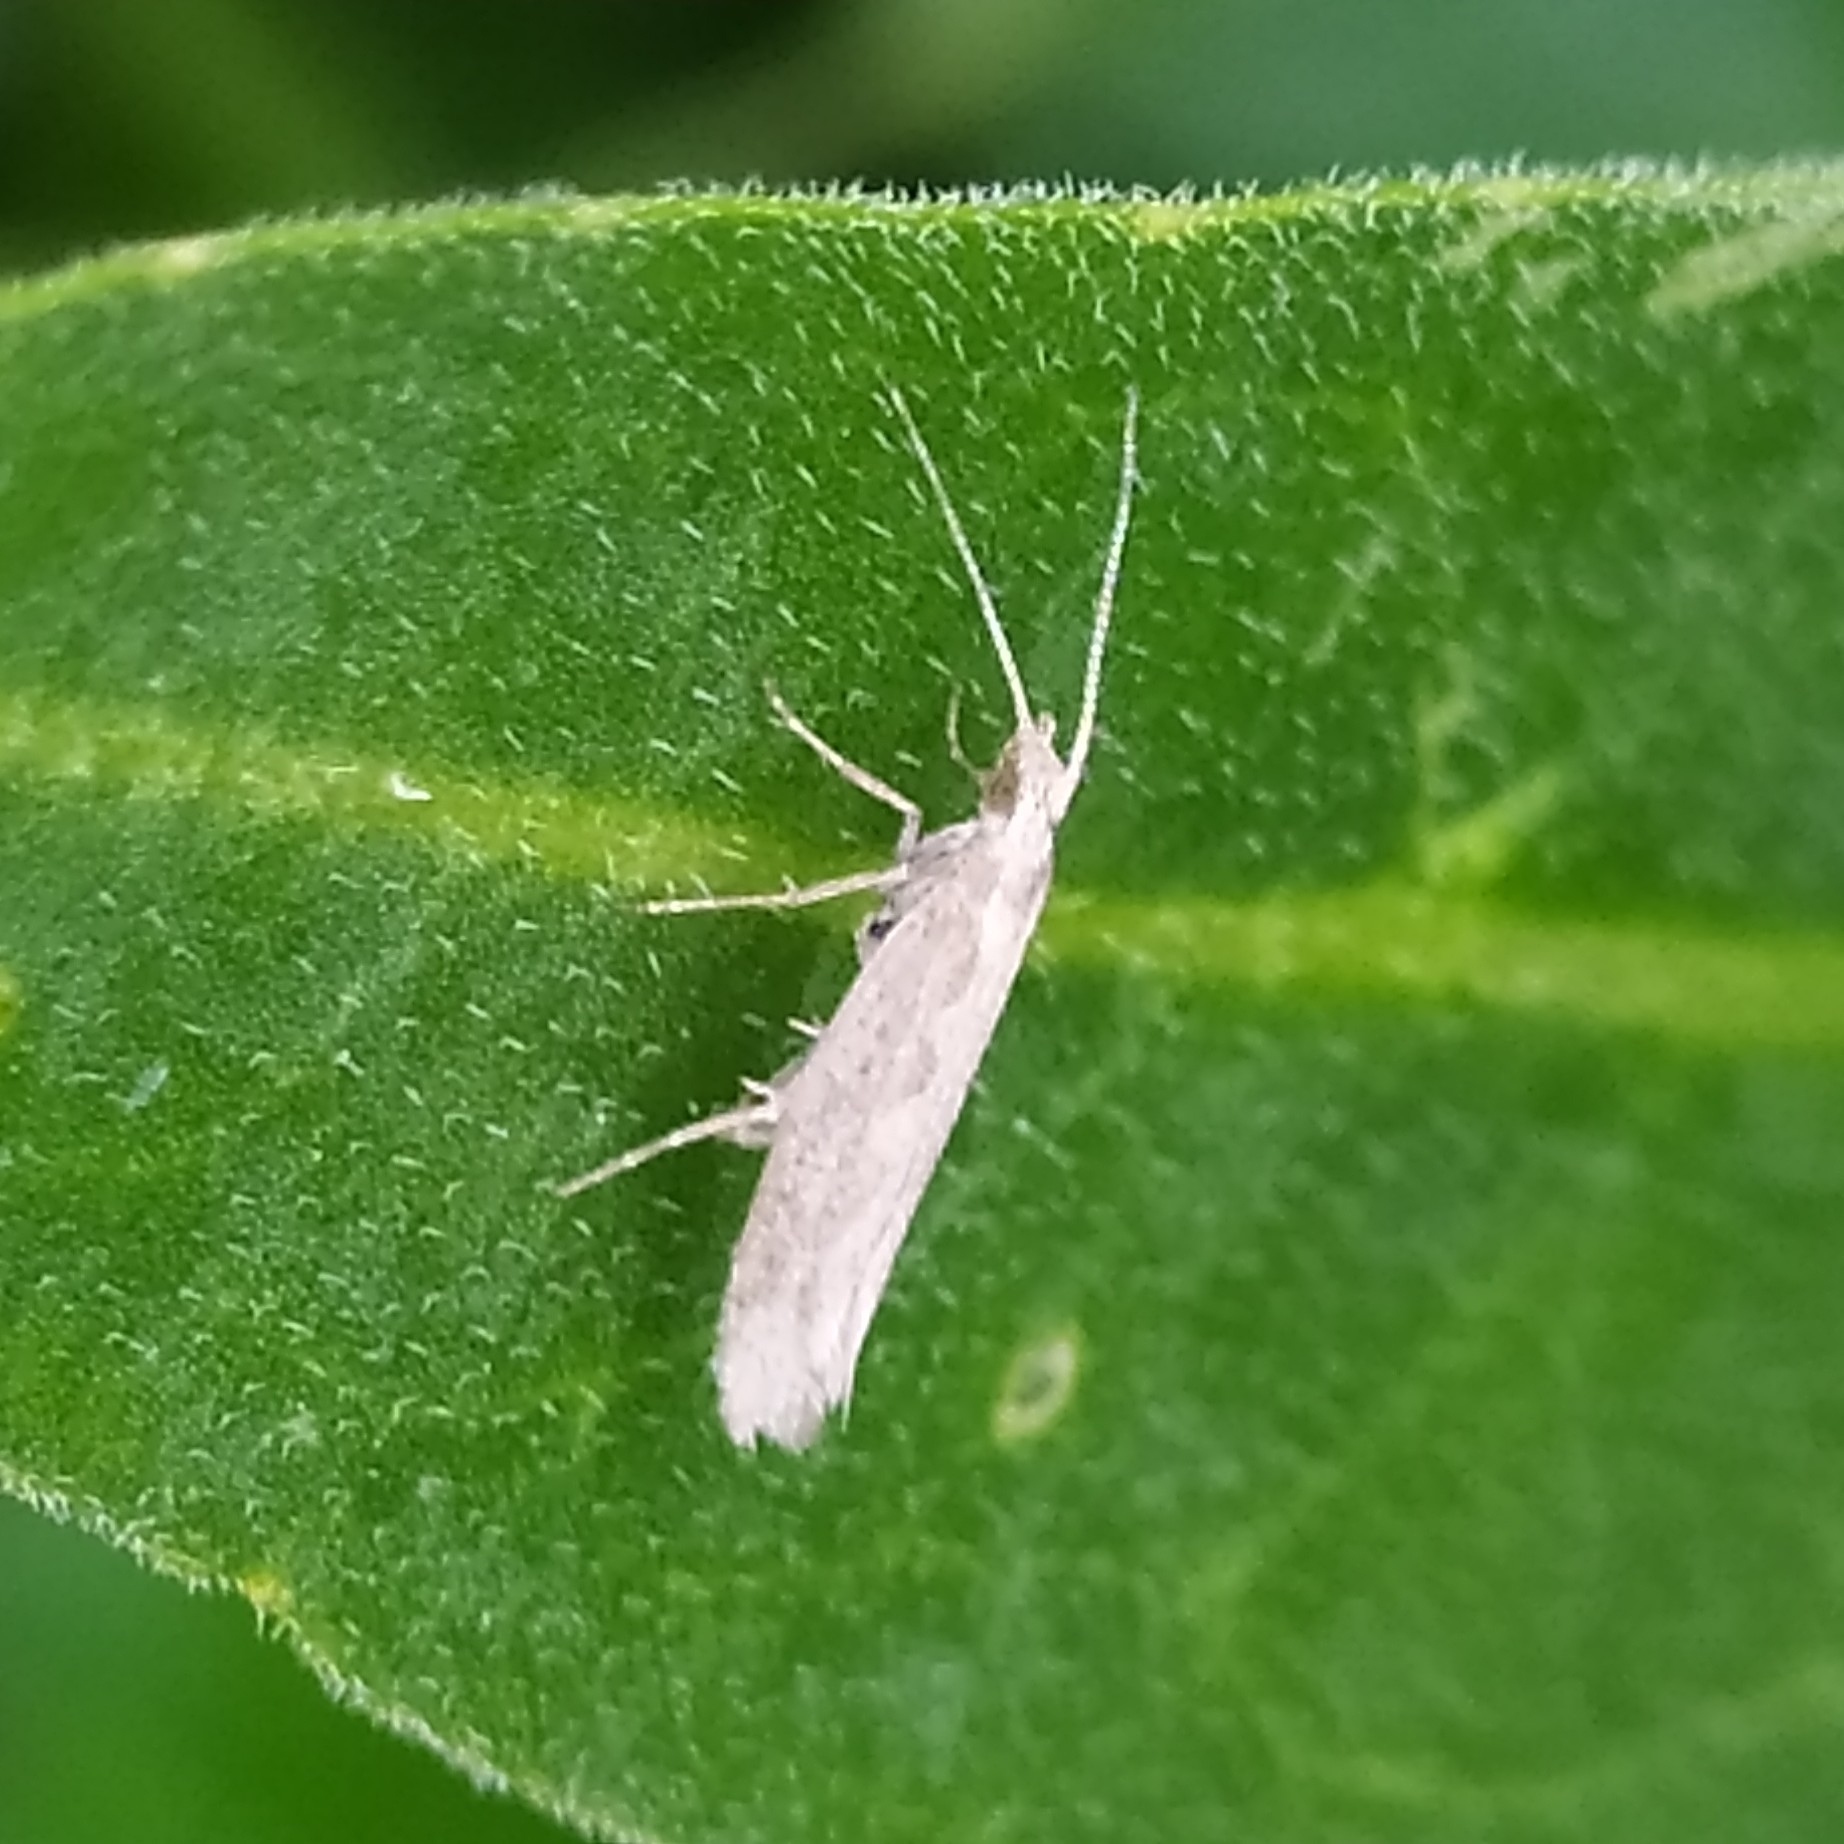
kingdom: Animalia
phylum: Arthropoda
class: Insecta
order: Lepidoptera
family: Plutellidae
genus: Plutella
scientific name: Plutella xylostella
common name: Diamond-back moth
